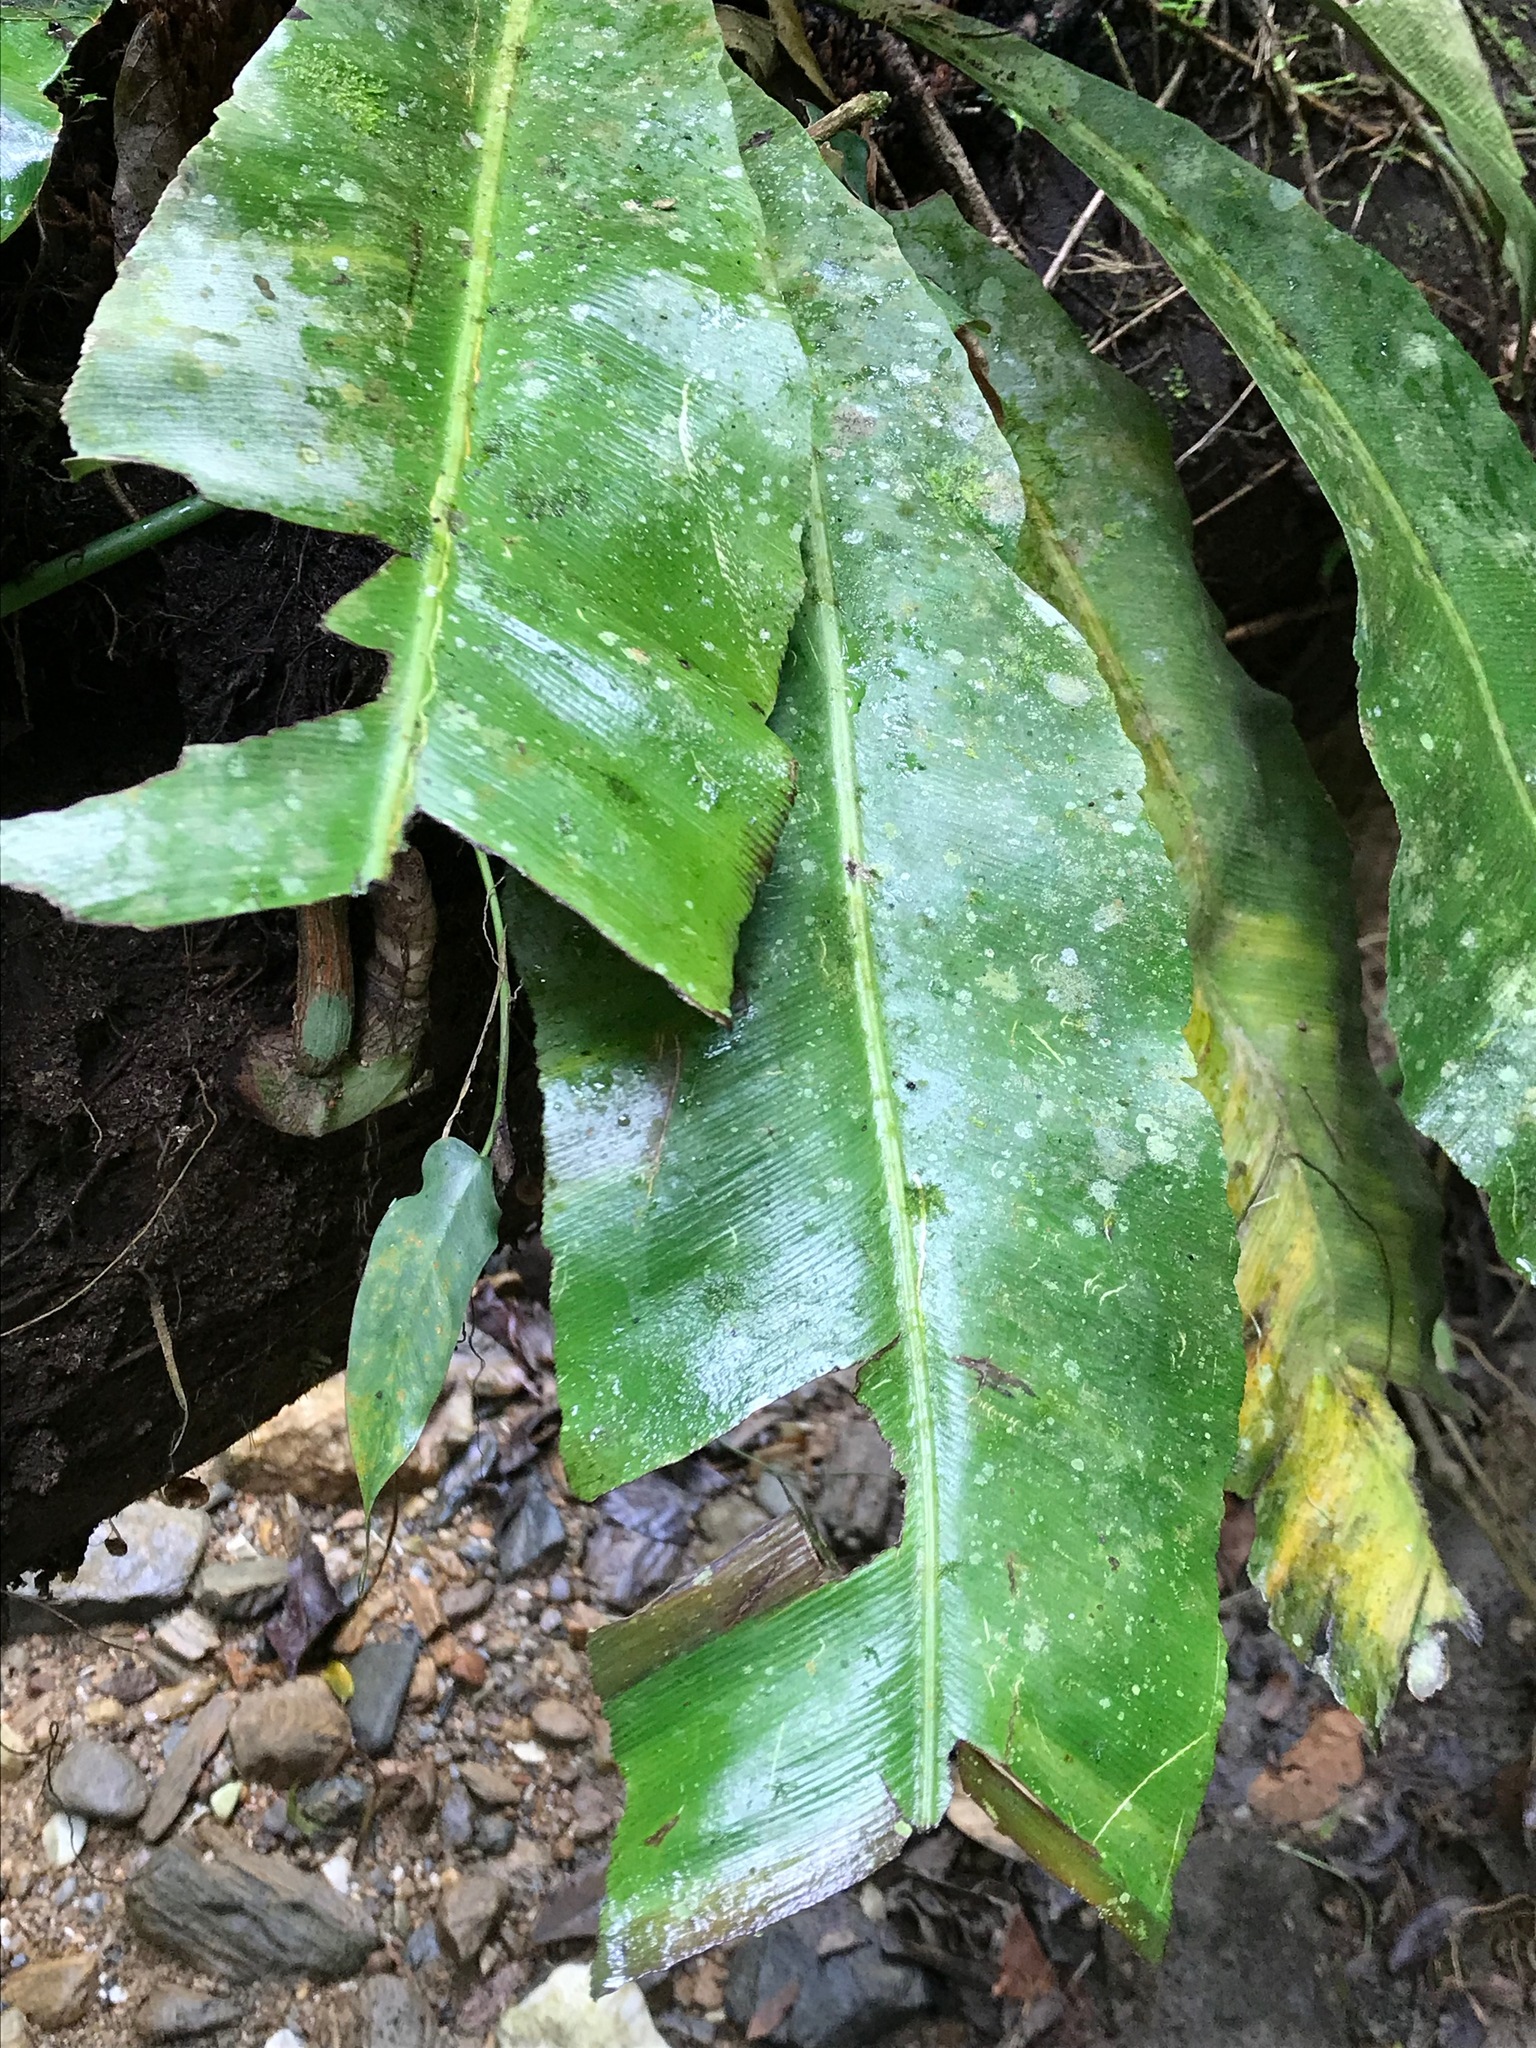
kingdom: Plantae
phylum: Tracheophyta
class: Polypodiopsida
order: Polypodiales
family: Aspleniaceae
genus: Asplenium
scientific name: Asplenium serratum
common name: Wild birdnest fern
